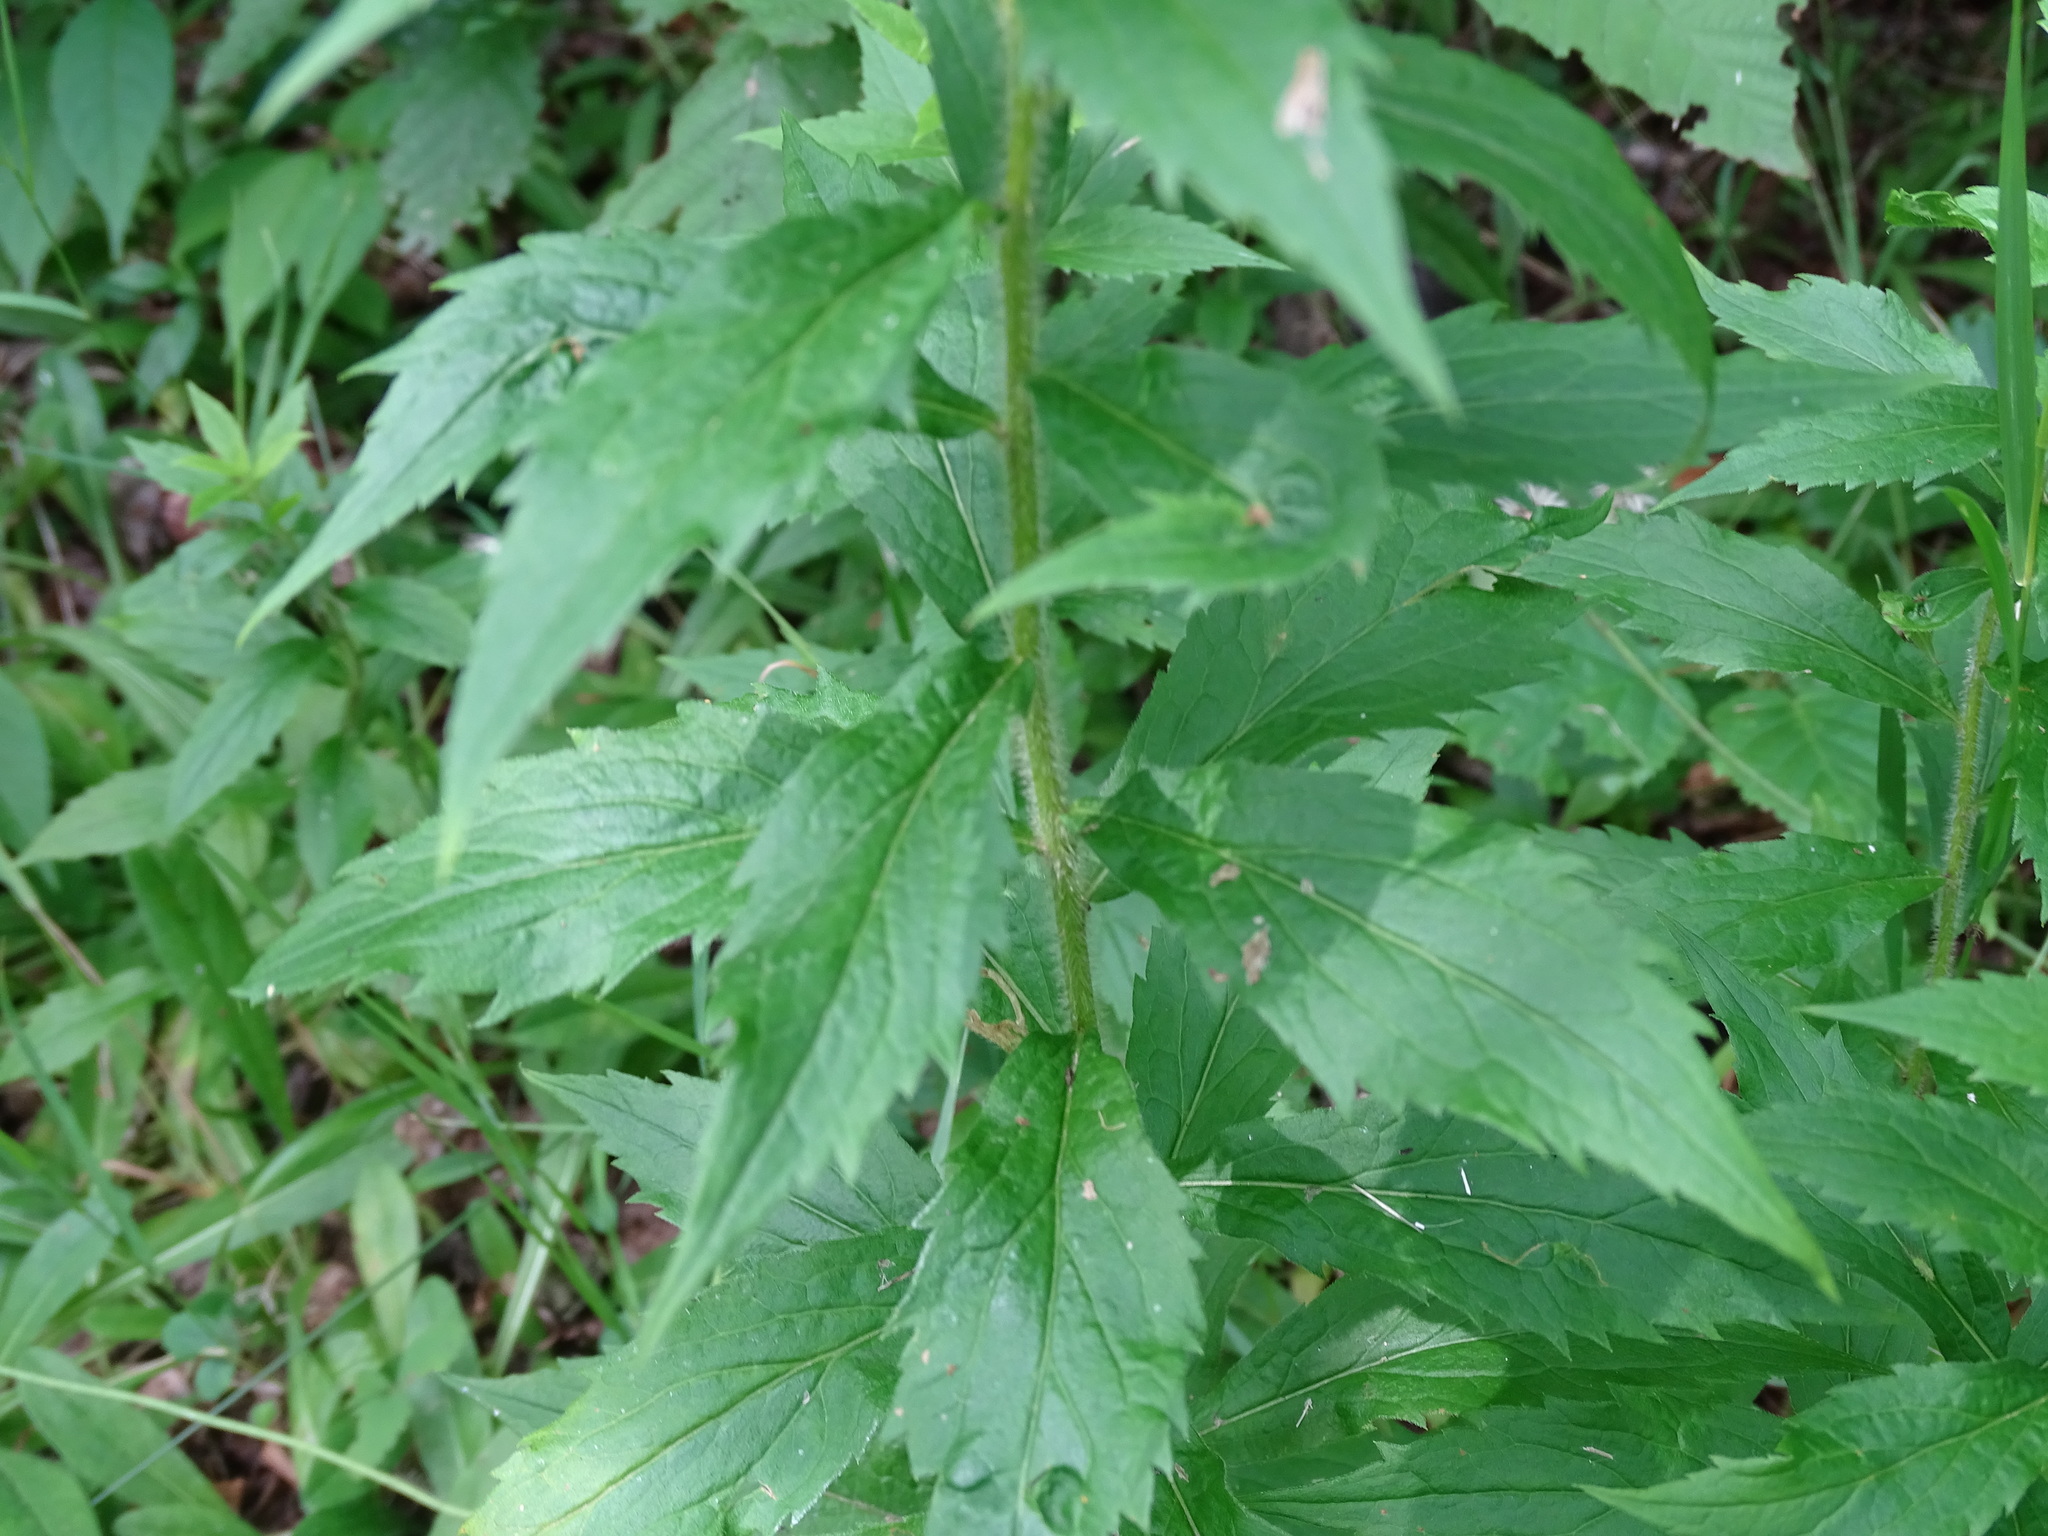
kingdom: Plantae
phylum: Tracheophyta
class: Magnoliopsida
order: Asterales
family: Asteraceae
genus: Solidago
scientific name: Solidago rugosa
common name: Rough-stemmed goldenrod
